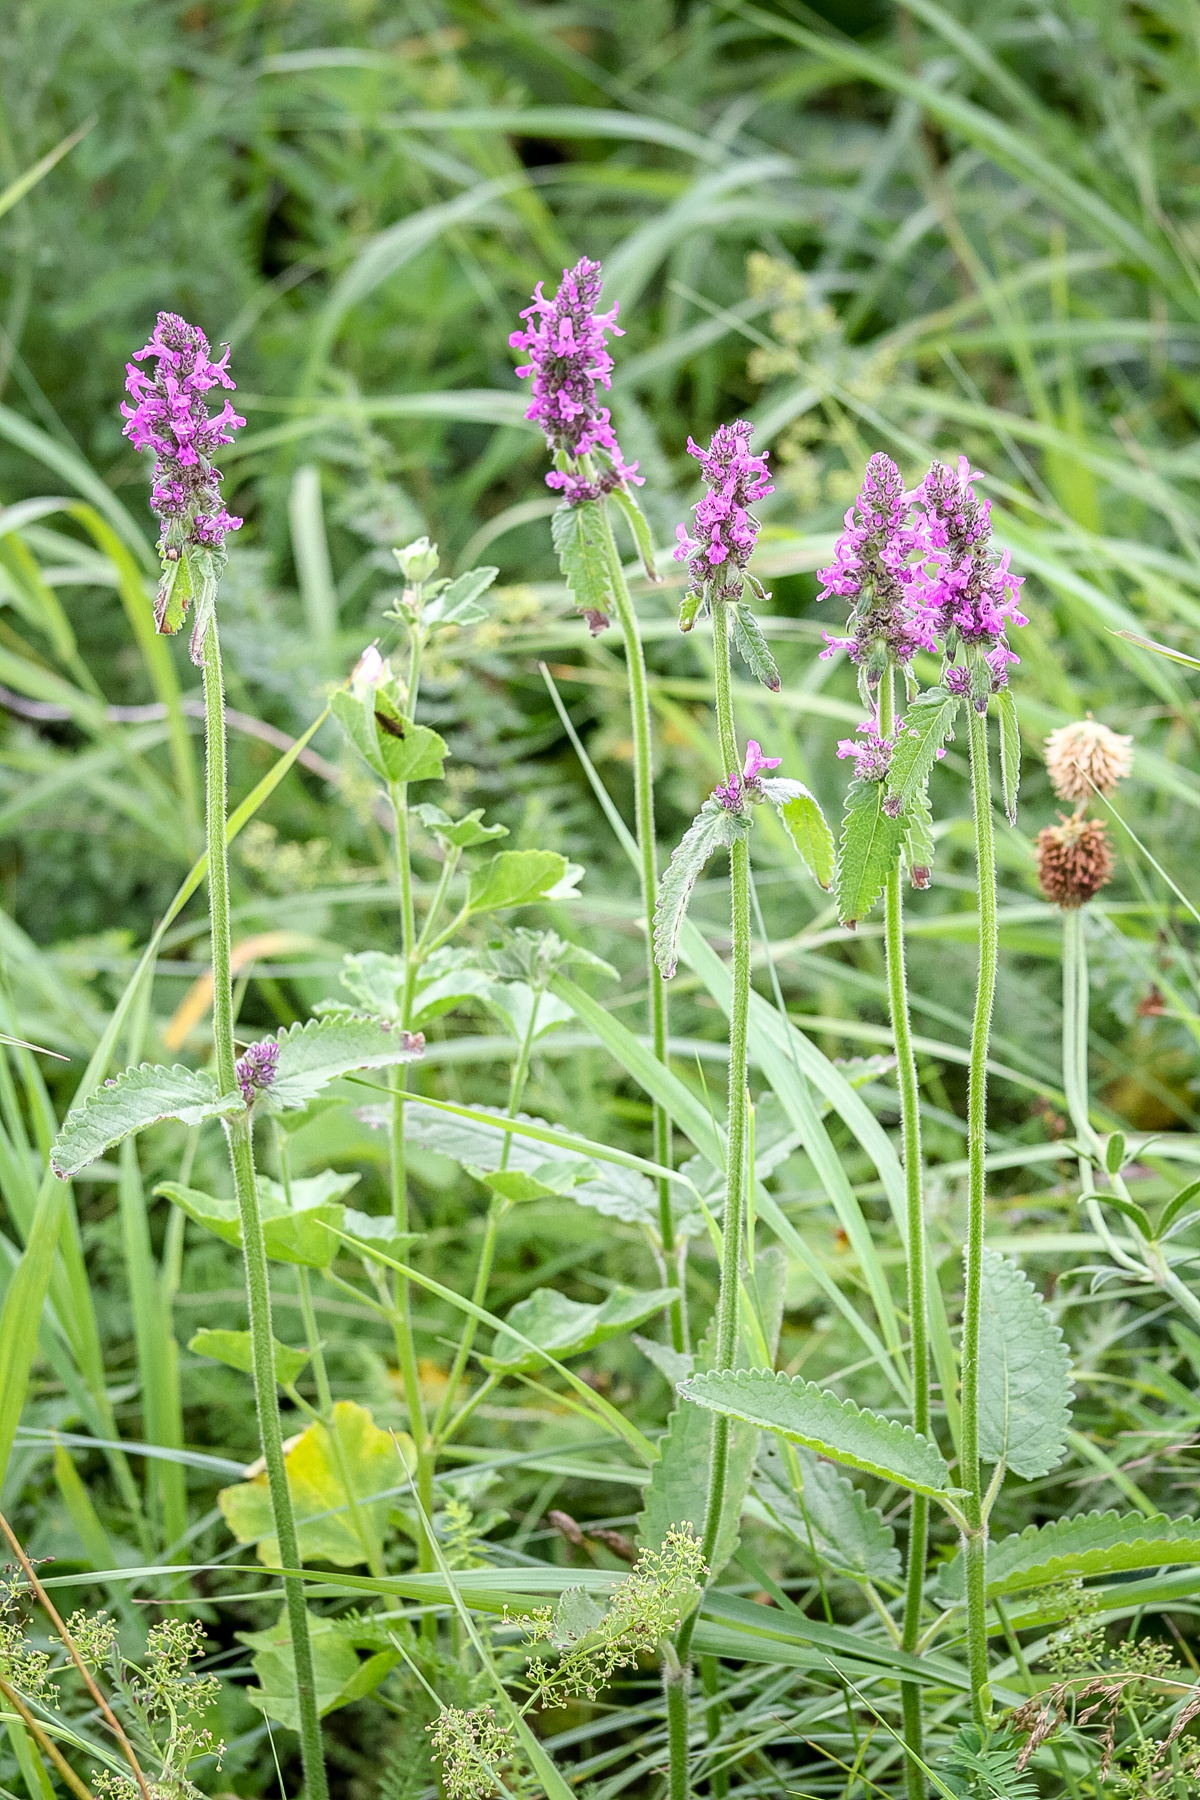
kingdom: Plantae
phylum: Tracheophyta
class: Magnoliopsida
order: Lamiales
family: Lamiaceae
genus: Betonica
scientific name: Betonica officinalis
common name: Bishop's-wort
